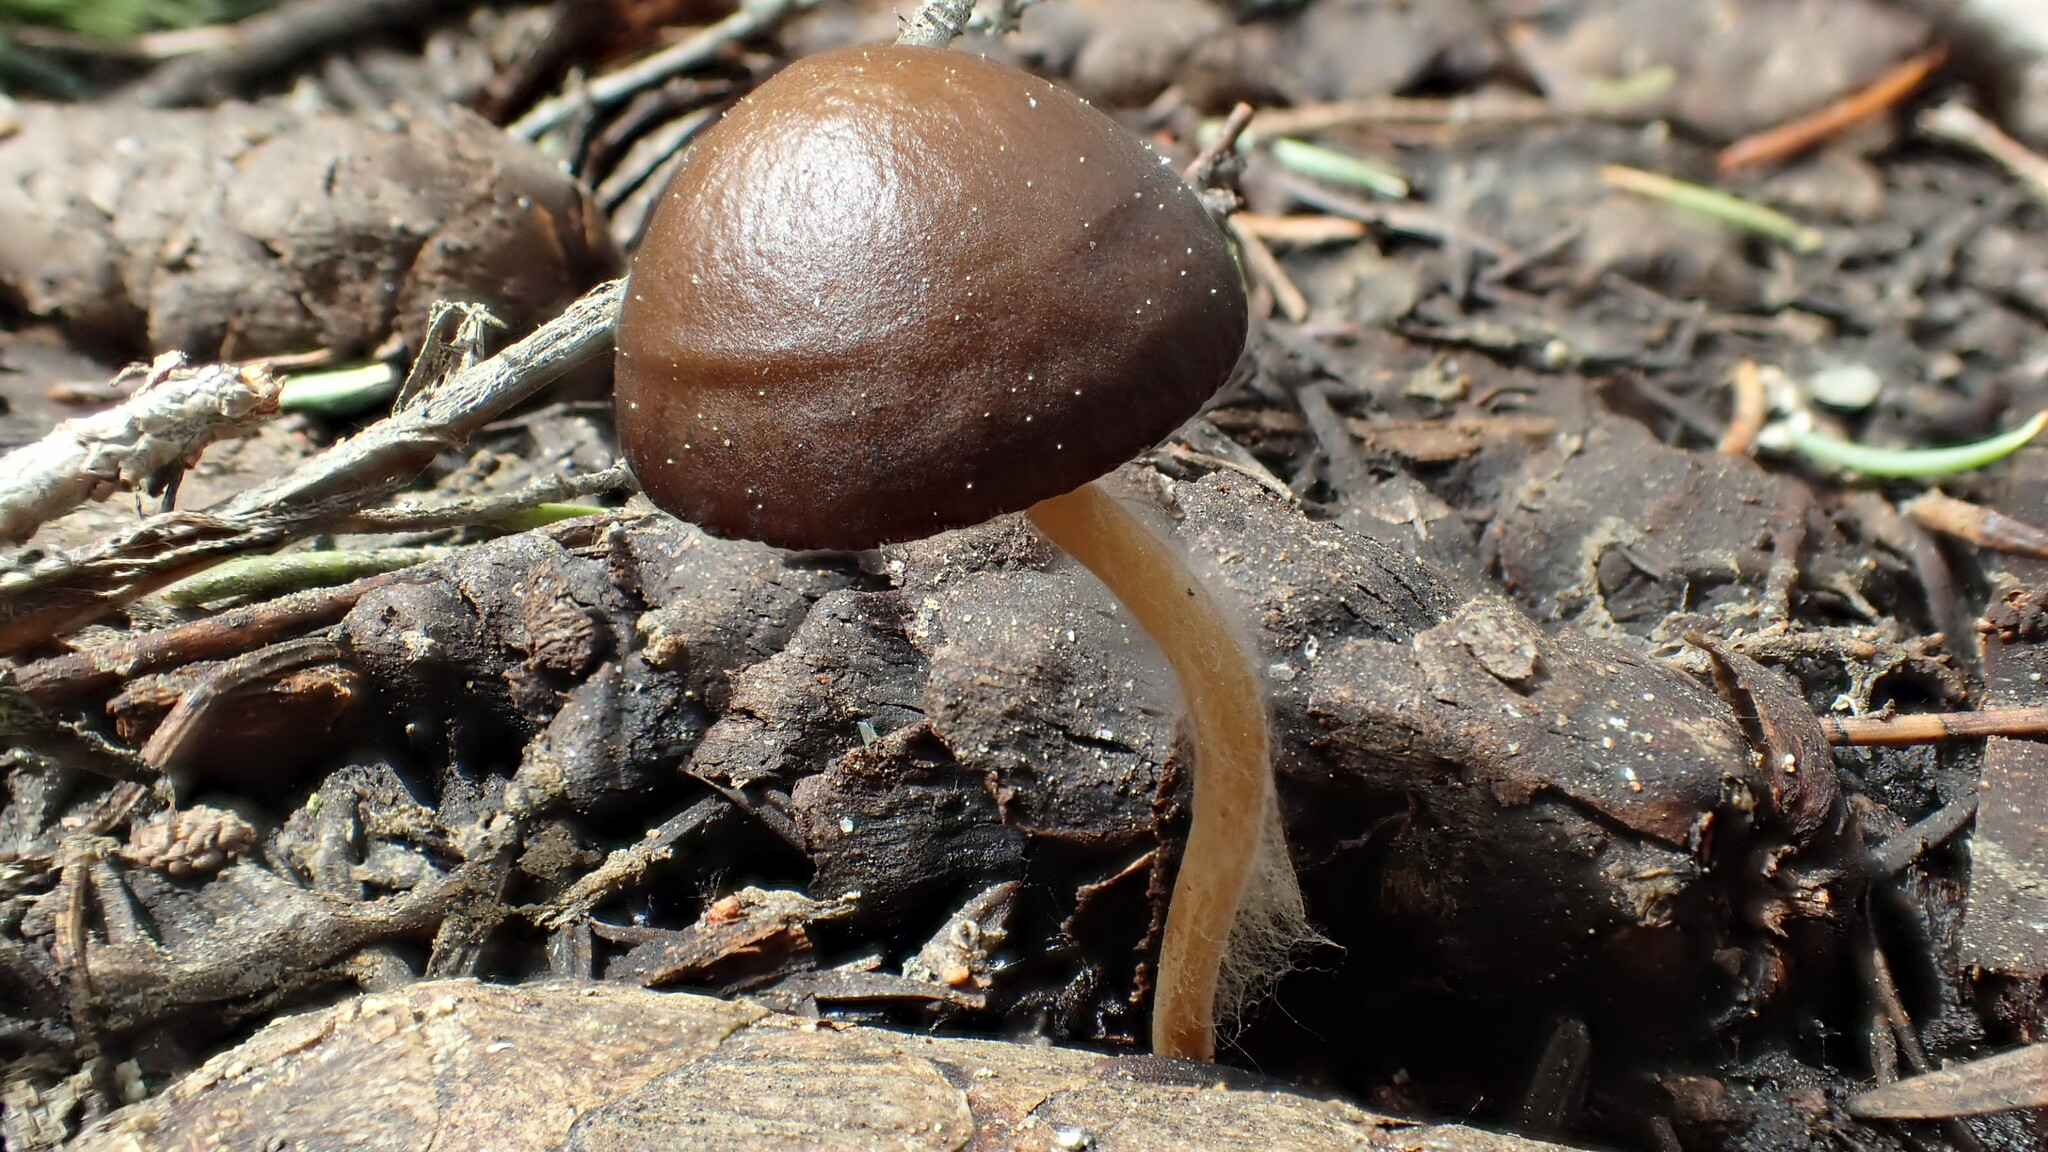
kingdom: Fungi
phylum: Basidiomycota
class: Agaricomycetes
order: Agaricales
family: Physalacriaceae
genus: Strobilurus
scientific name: Strobilurus albipilatus
